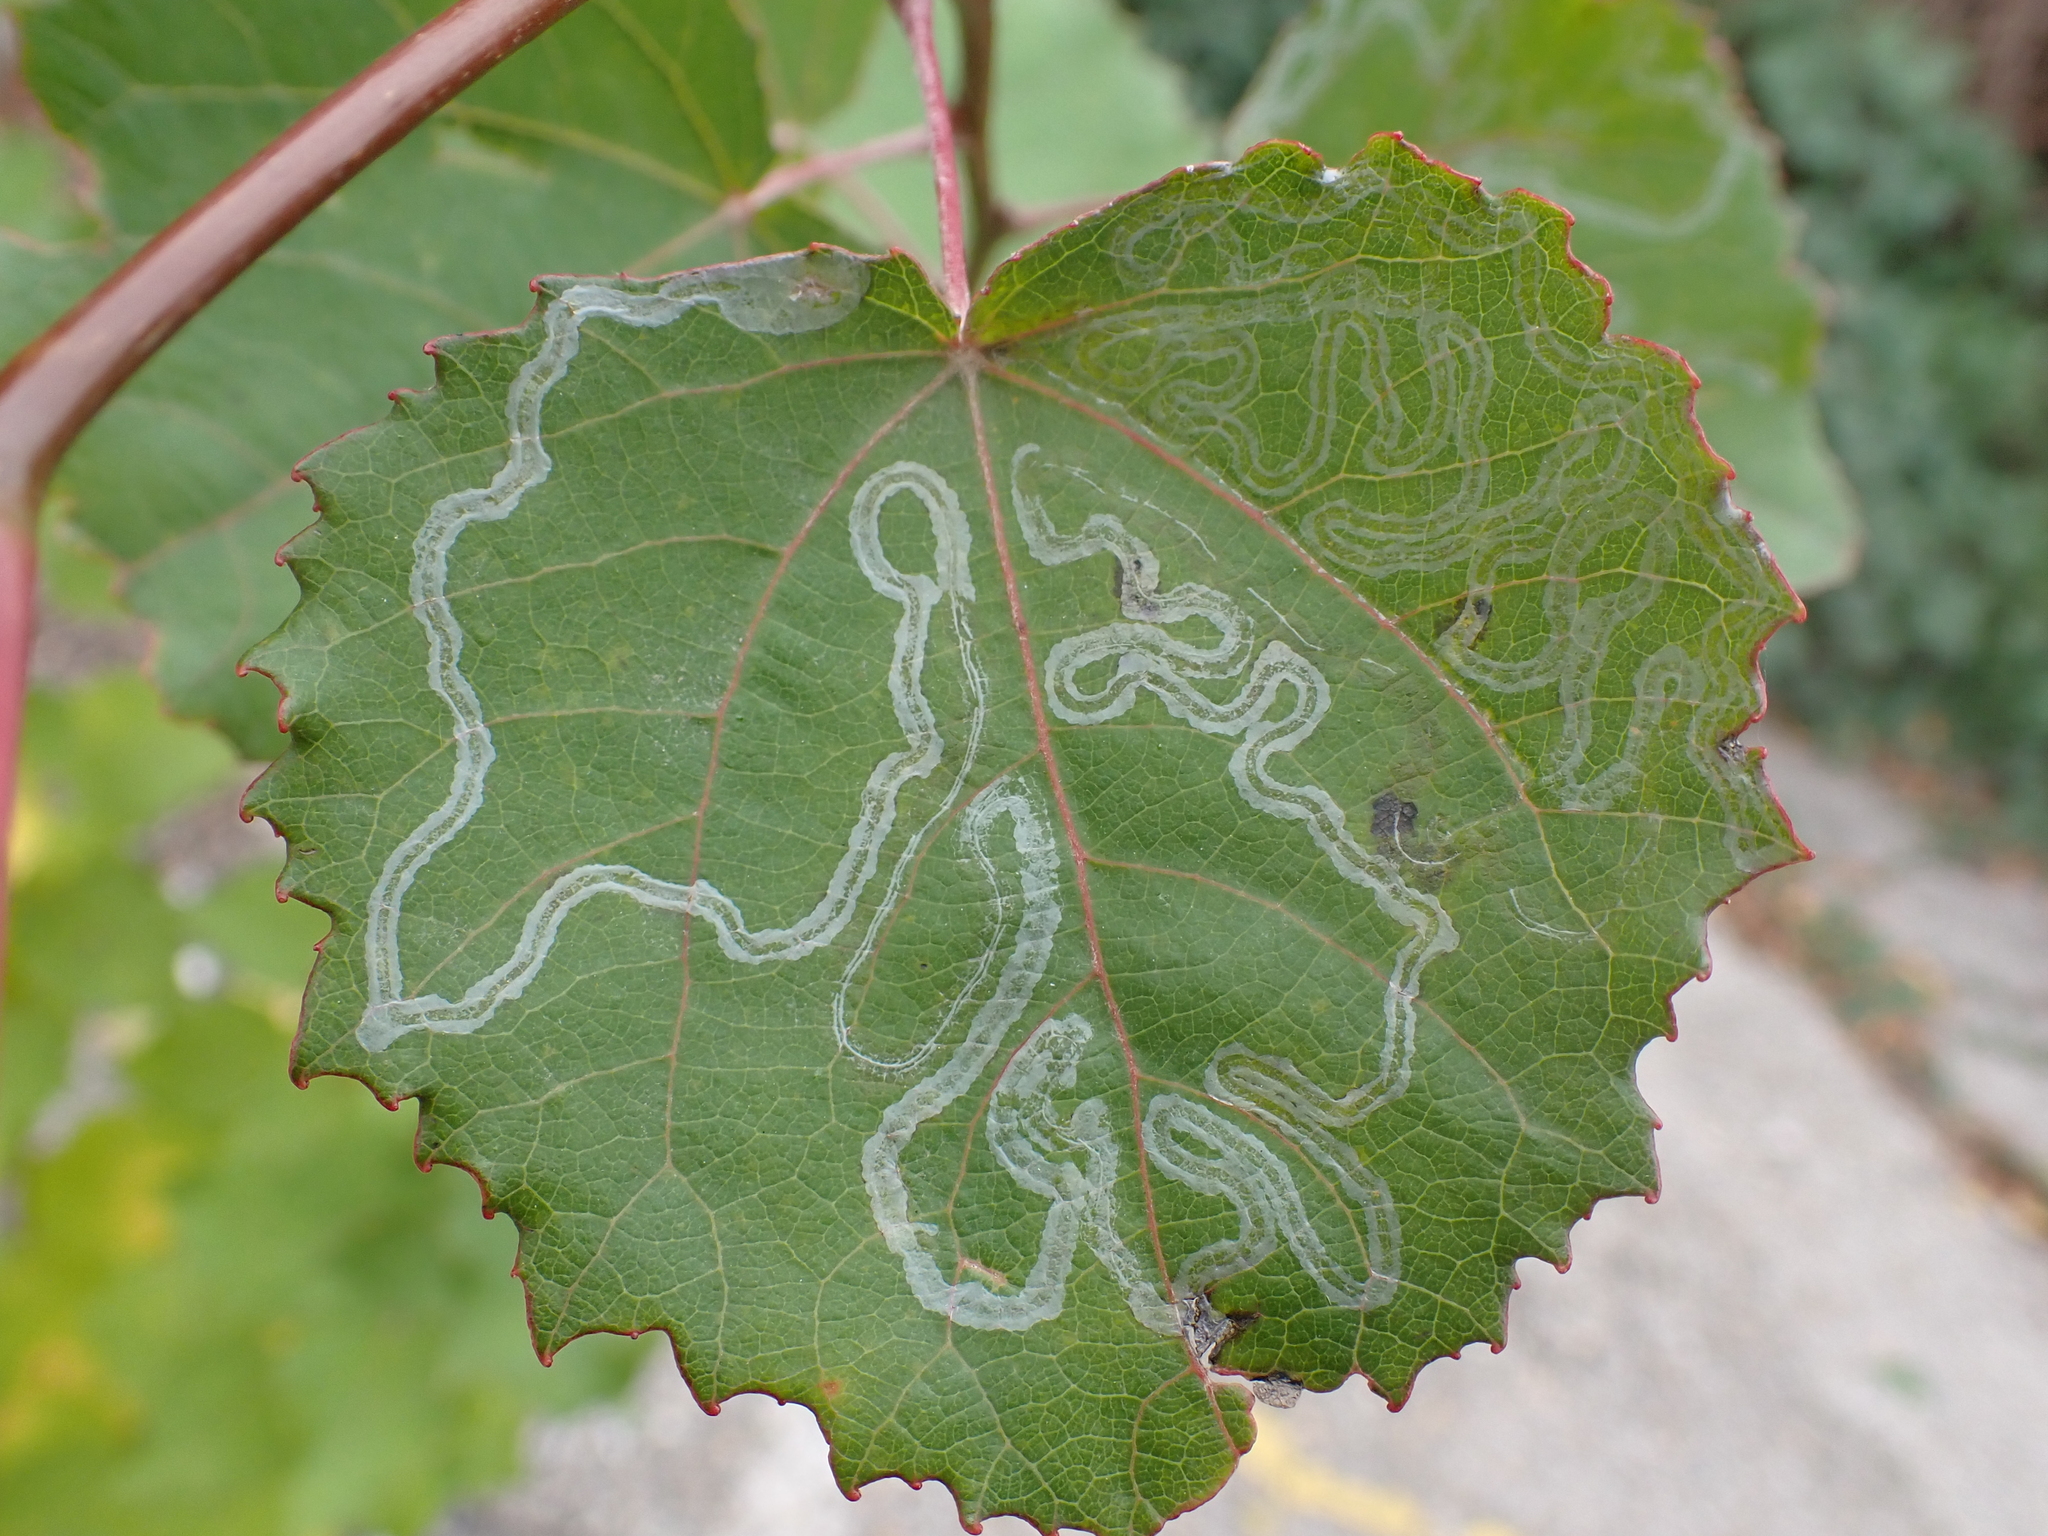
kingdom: Animalia
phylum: Arthropoda
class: Insecta
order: Lepidoptera
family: Gracillariidae
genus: Phyllocnistis
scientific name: Phyllocnistis xenia
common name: Kent bent-wing
